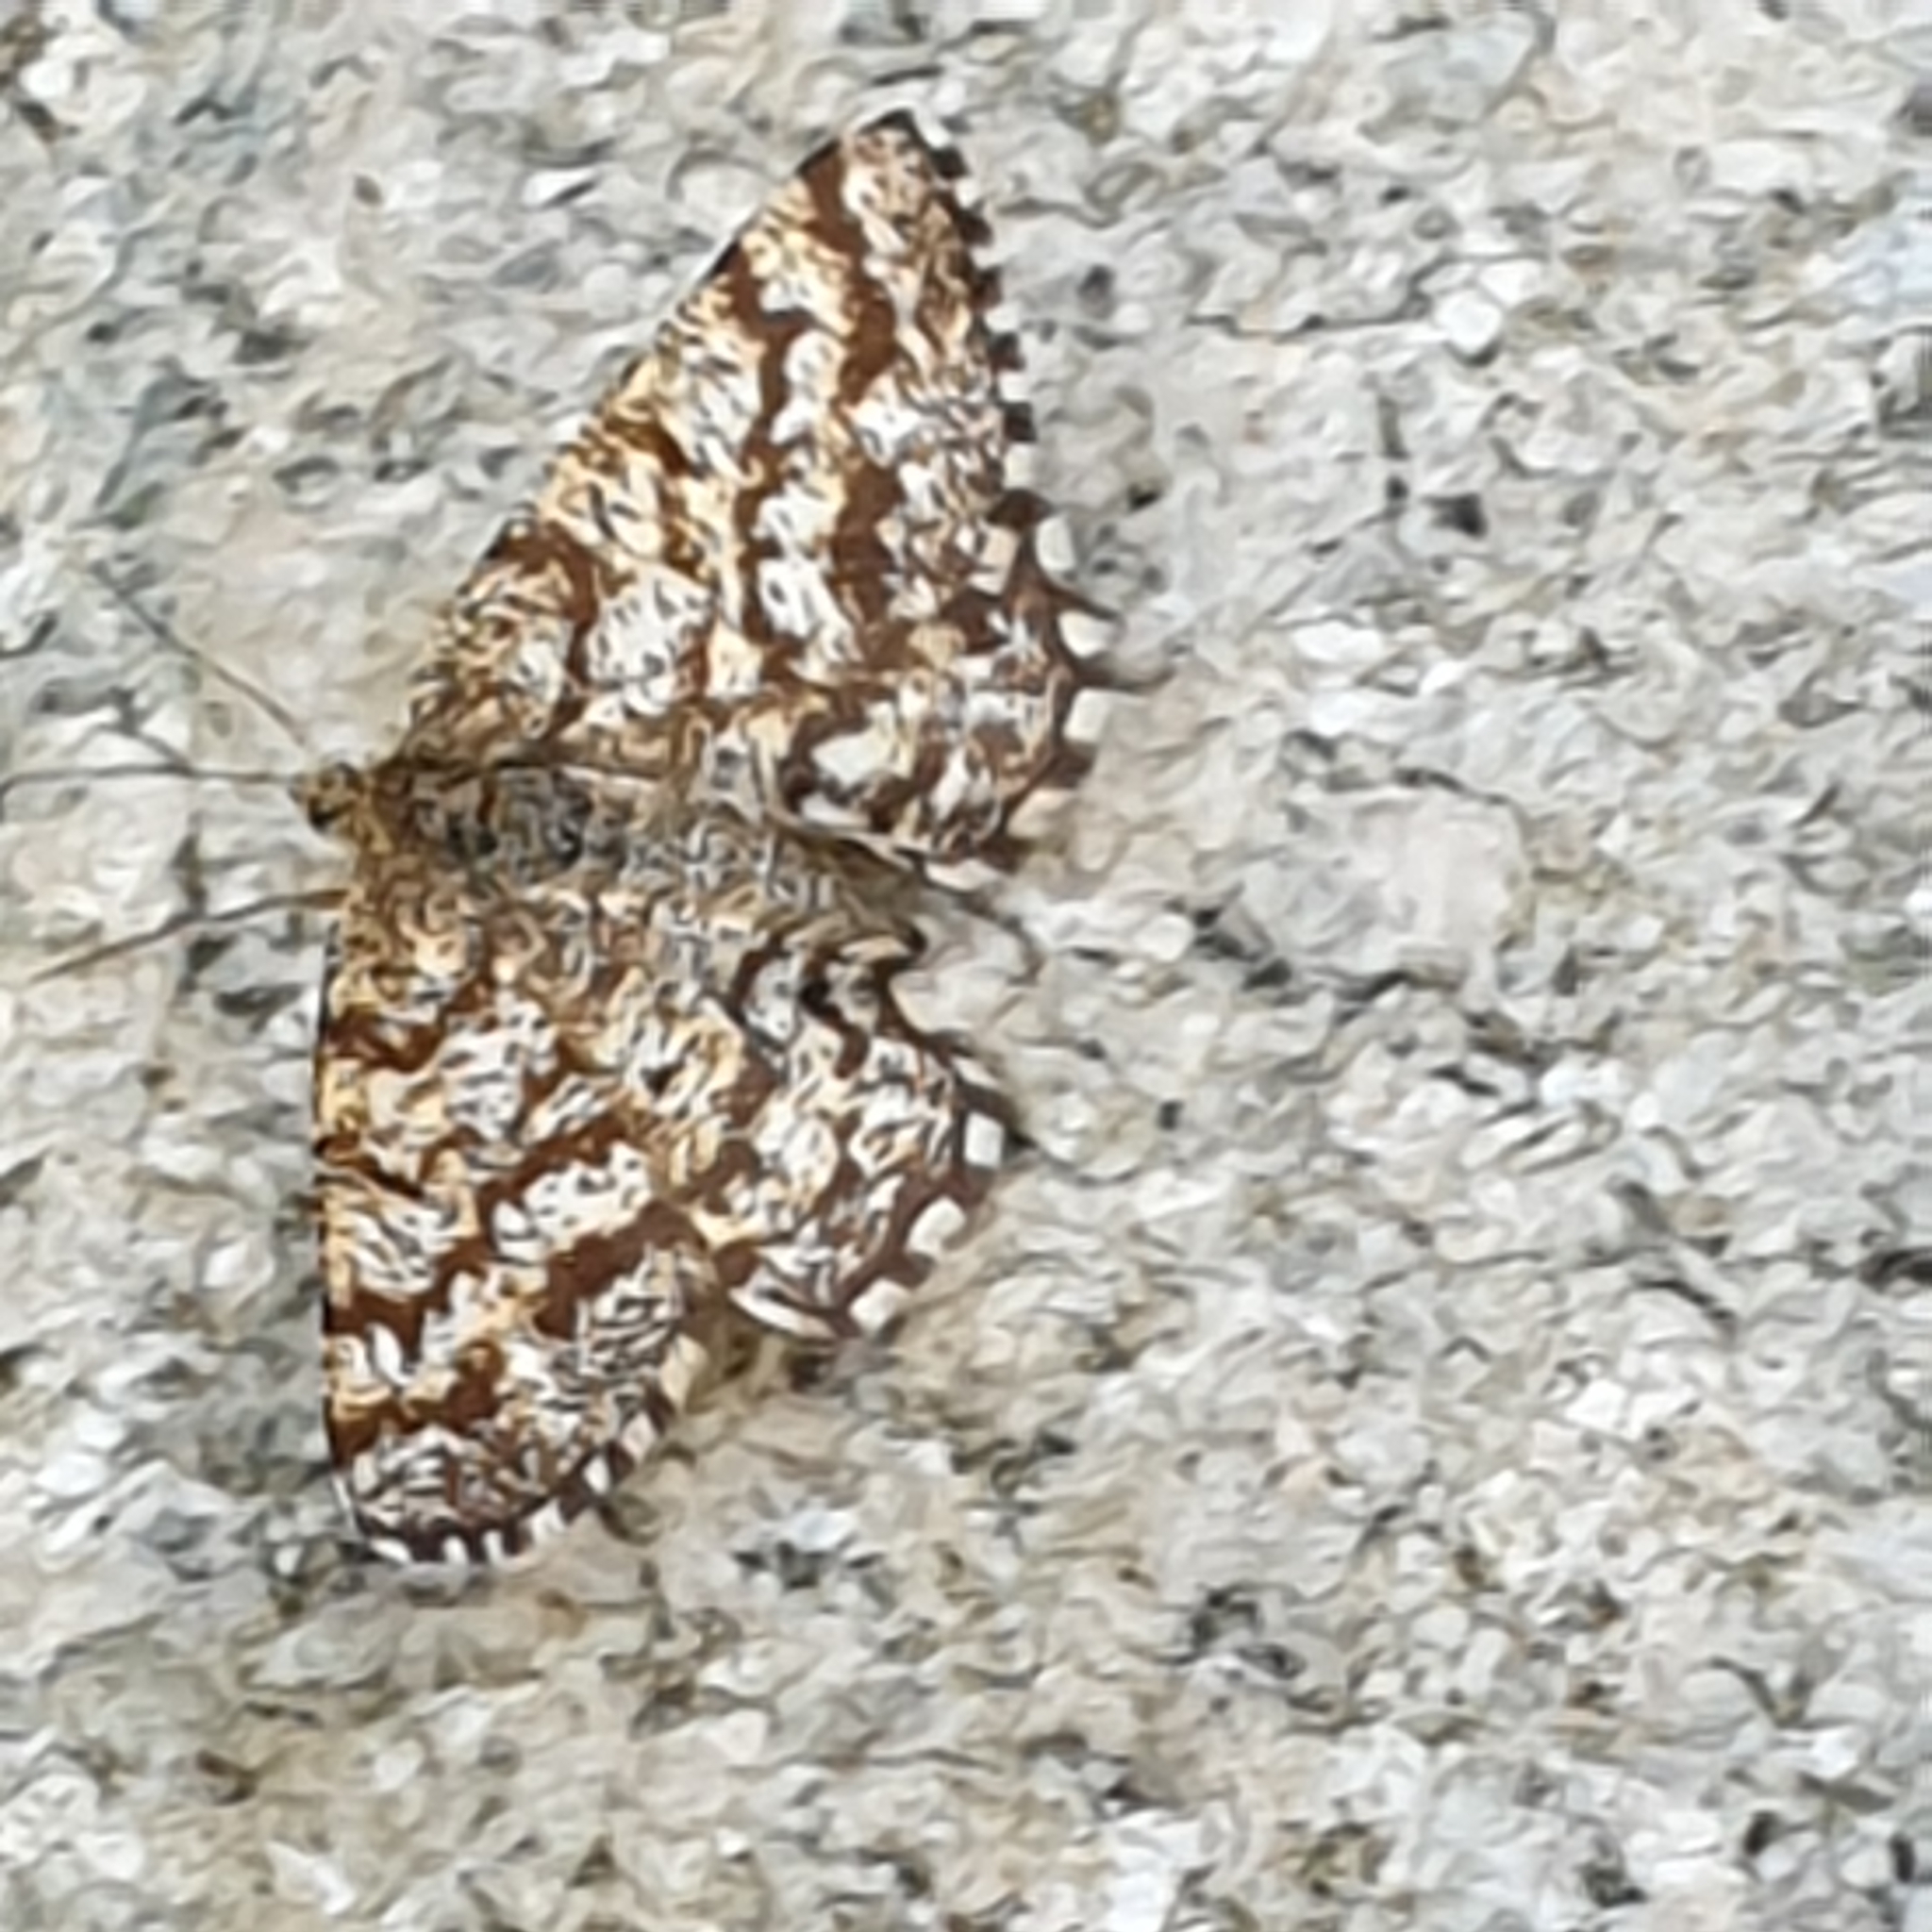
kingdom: Animalia
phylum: Arthropoda
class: Insecta
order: Lepidoptera
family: Geometridae
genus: Ematurga
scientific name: Ematurga atomaria
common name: Common heath
